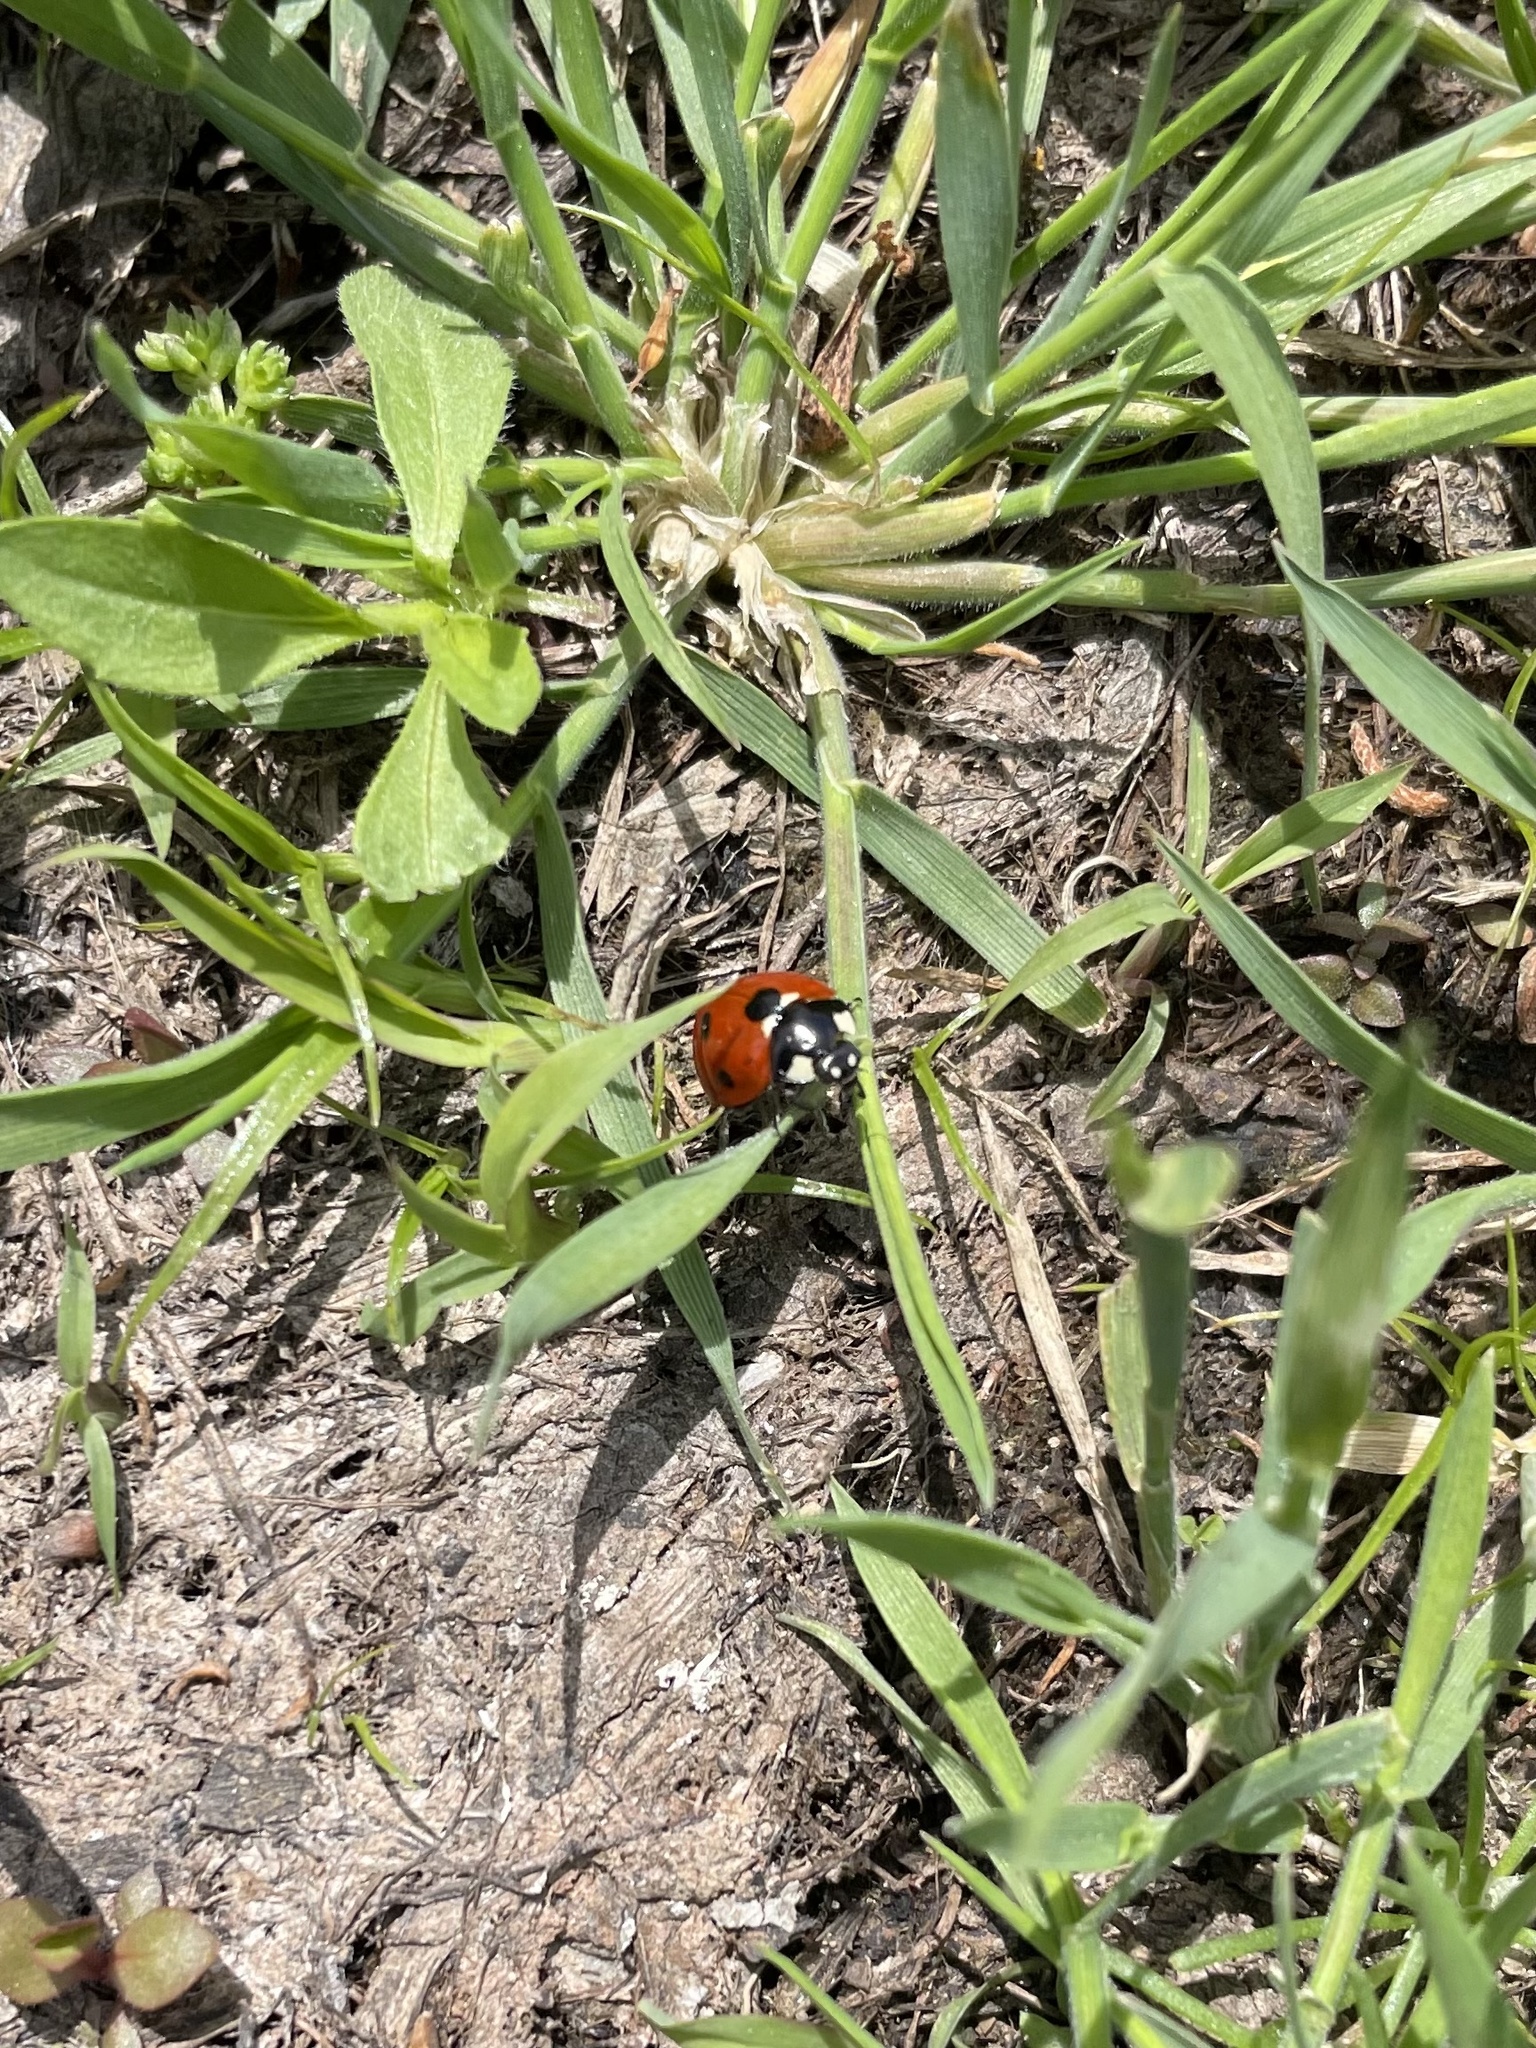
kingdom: Animalia
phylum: Arthropoda
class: Insecta
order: Coleoptera
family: Coccinellidae
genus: Coccinella
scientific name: Coccinella septempunctata
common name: Sevenspotted lady beetle
